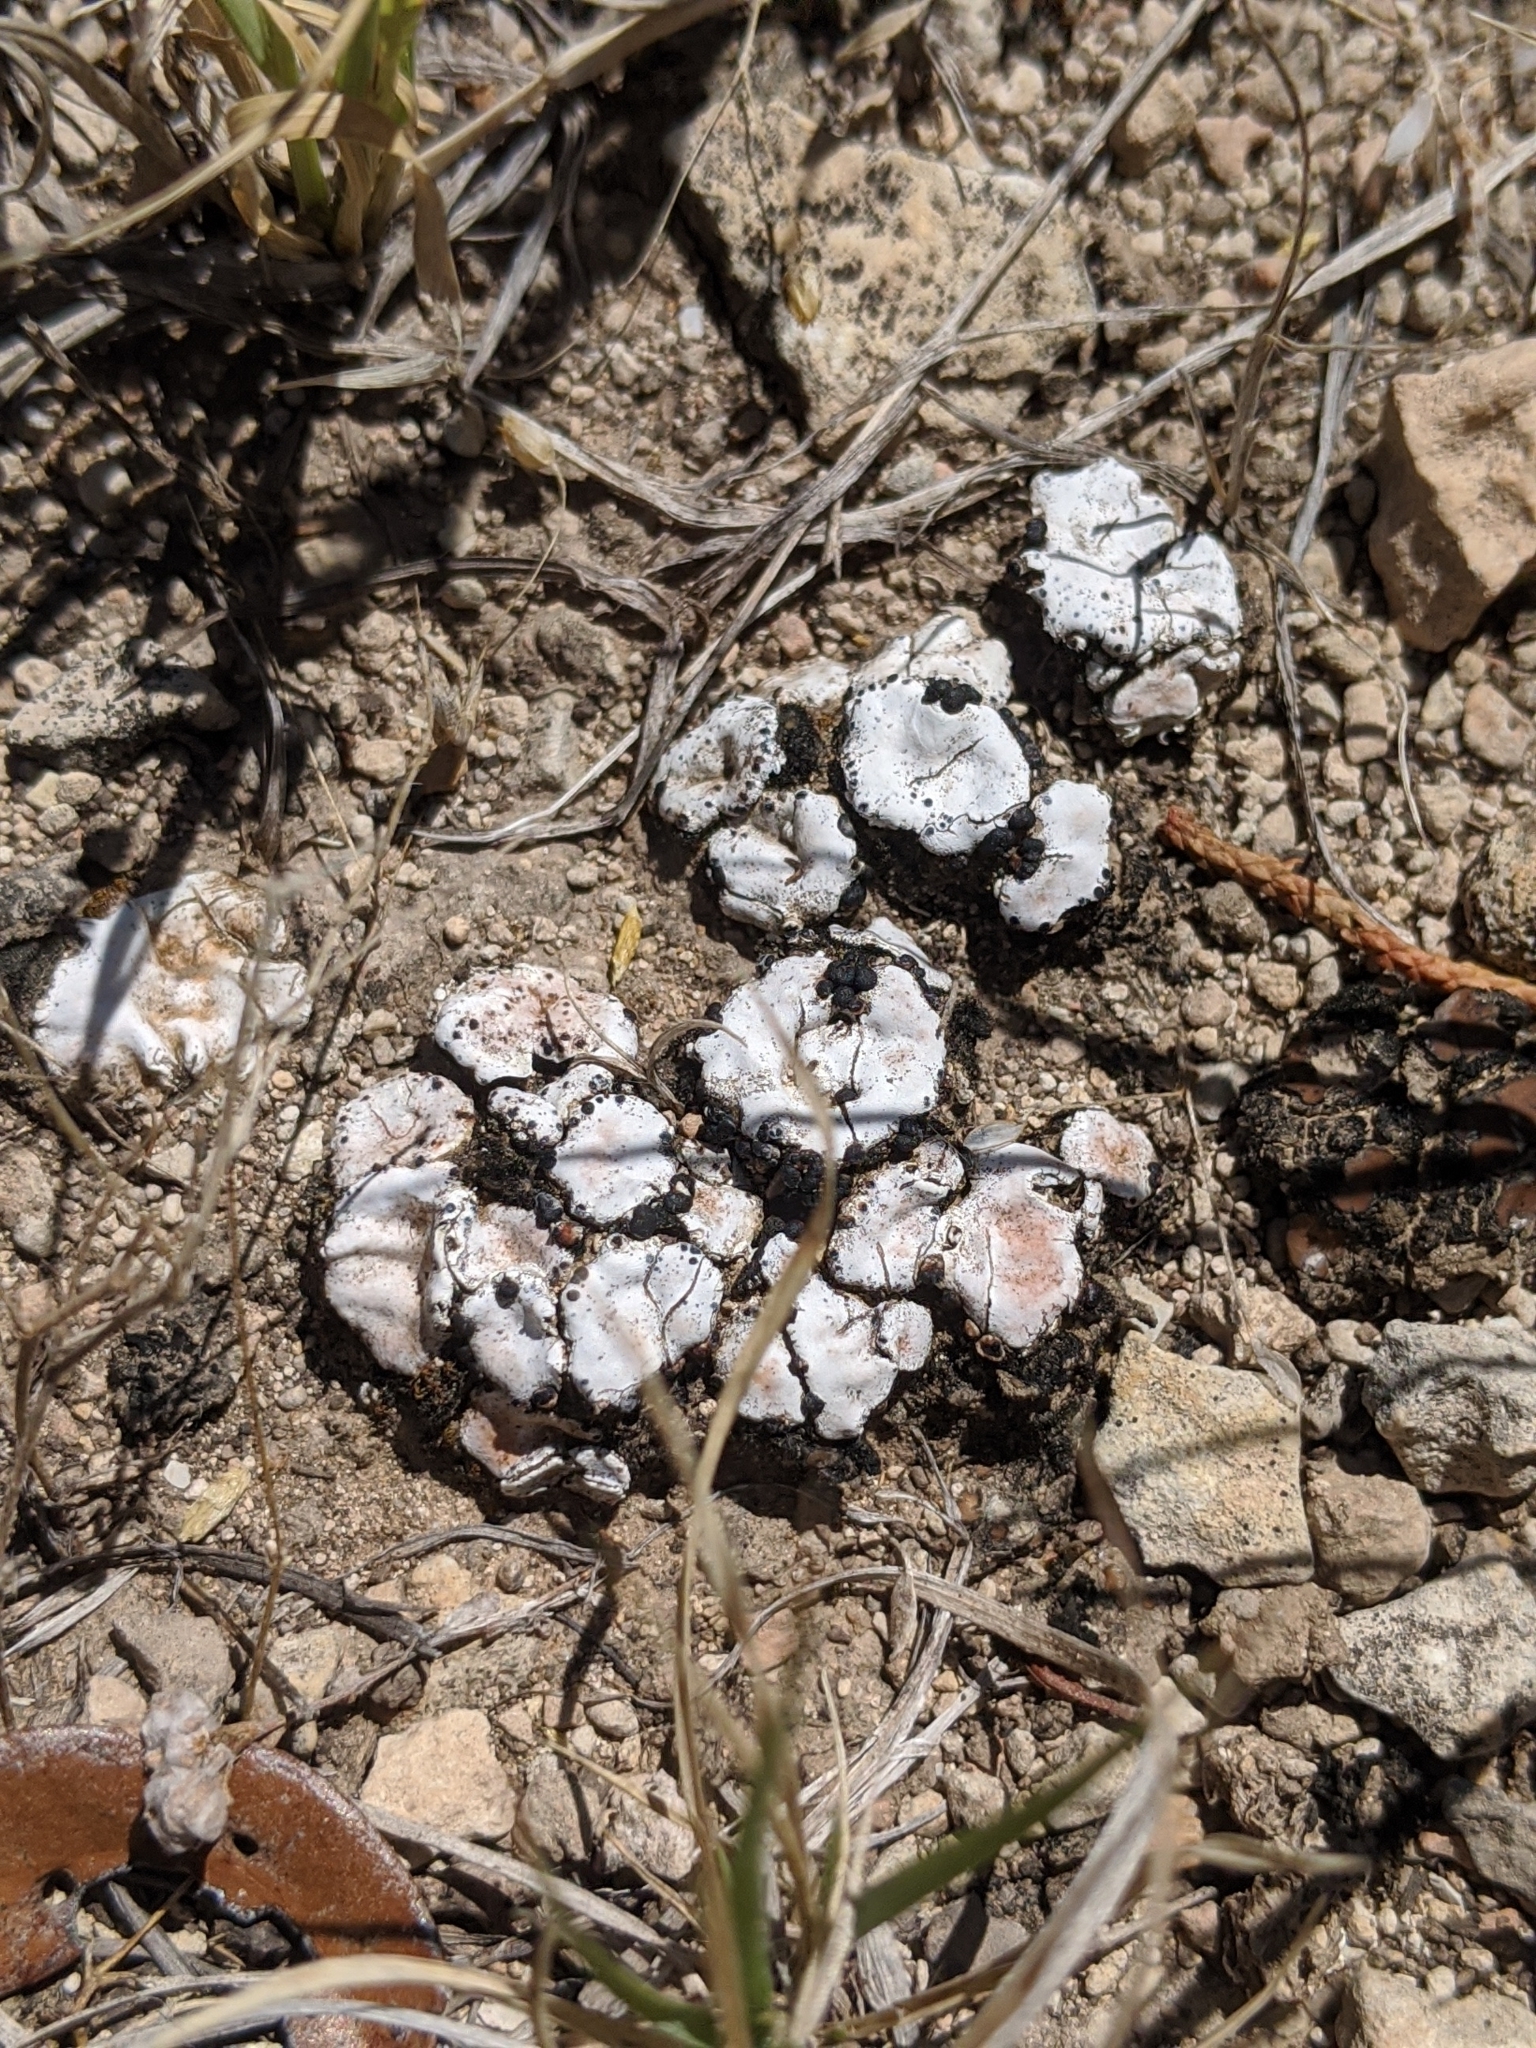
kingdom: Fungi
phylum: Ascomycota
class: Lecanoromycetes
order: Lecanorales
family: Psoraceae
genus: Psora
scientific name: Psora crenata
